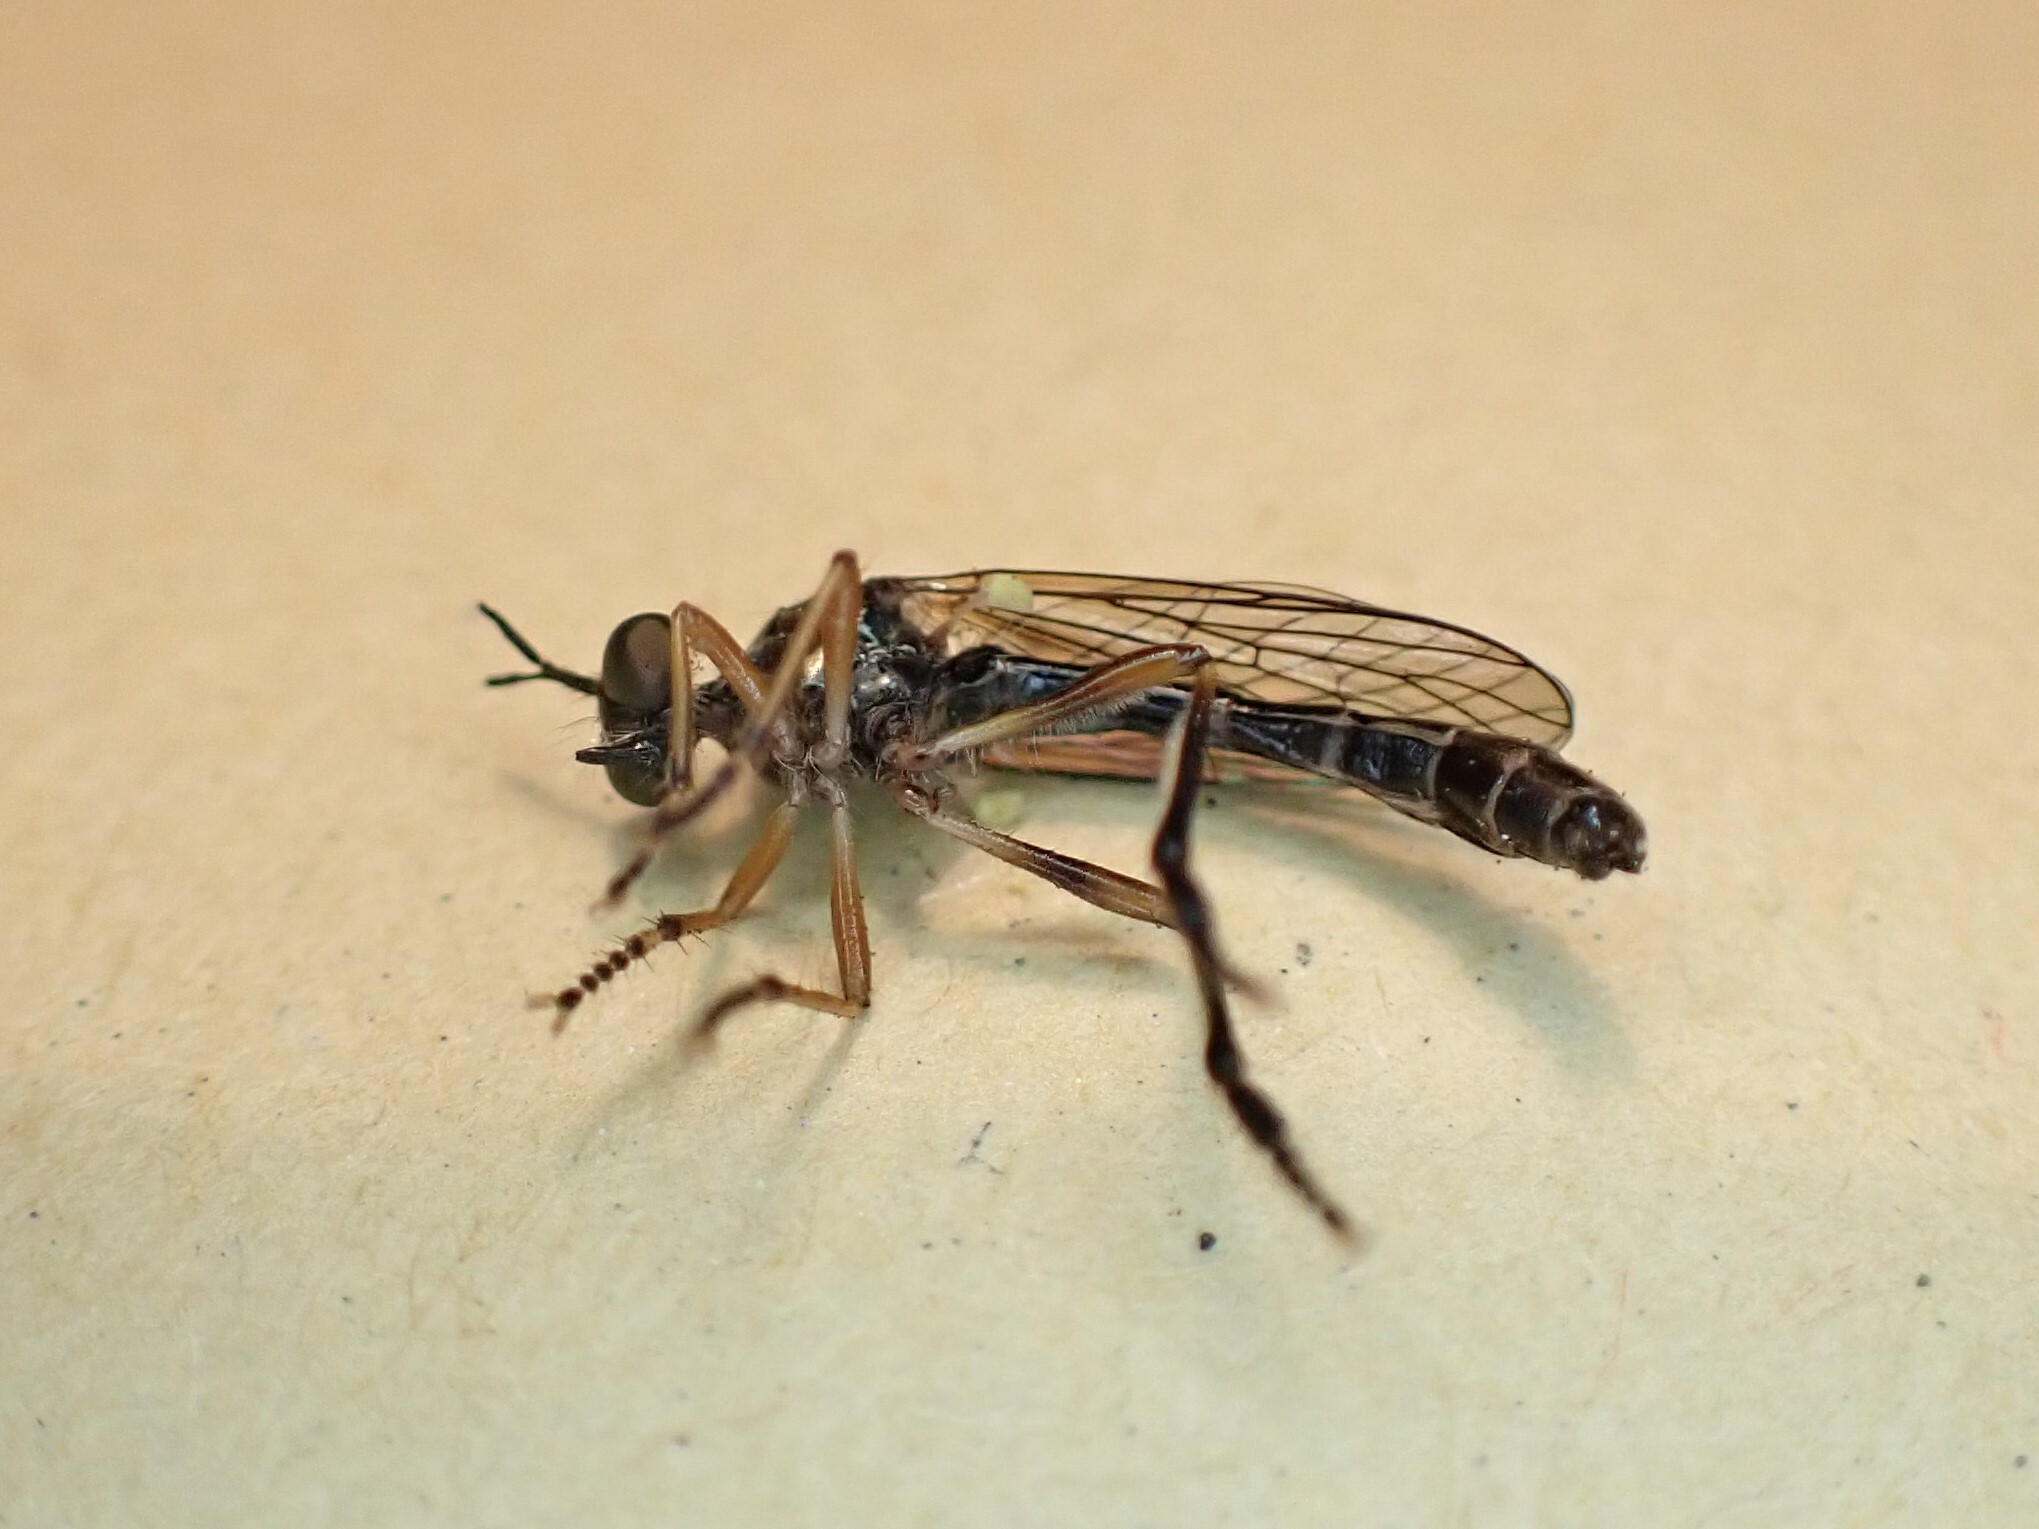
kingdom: Animalia
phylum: Arthropoda
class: Insecta
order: Diptera
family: Asilidae
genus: Dioctria
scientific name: Dioctria hyalipennis
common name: Stripe-legged robberfly
